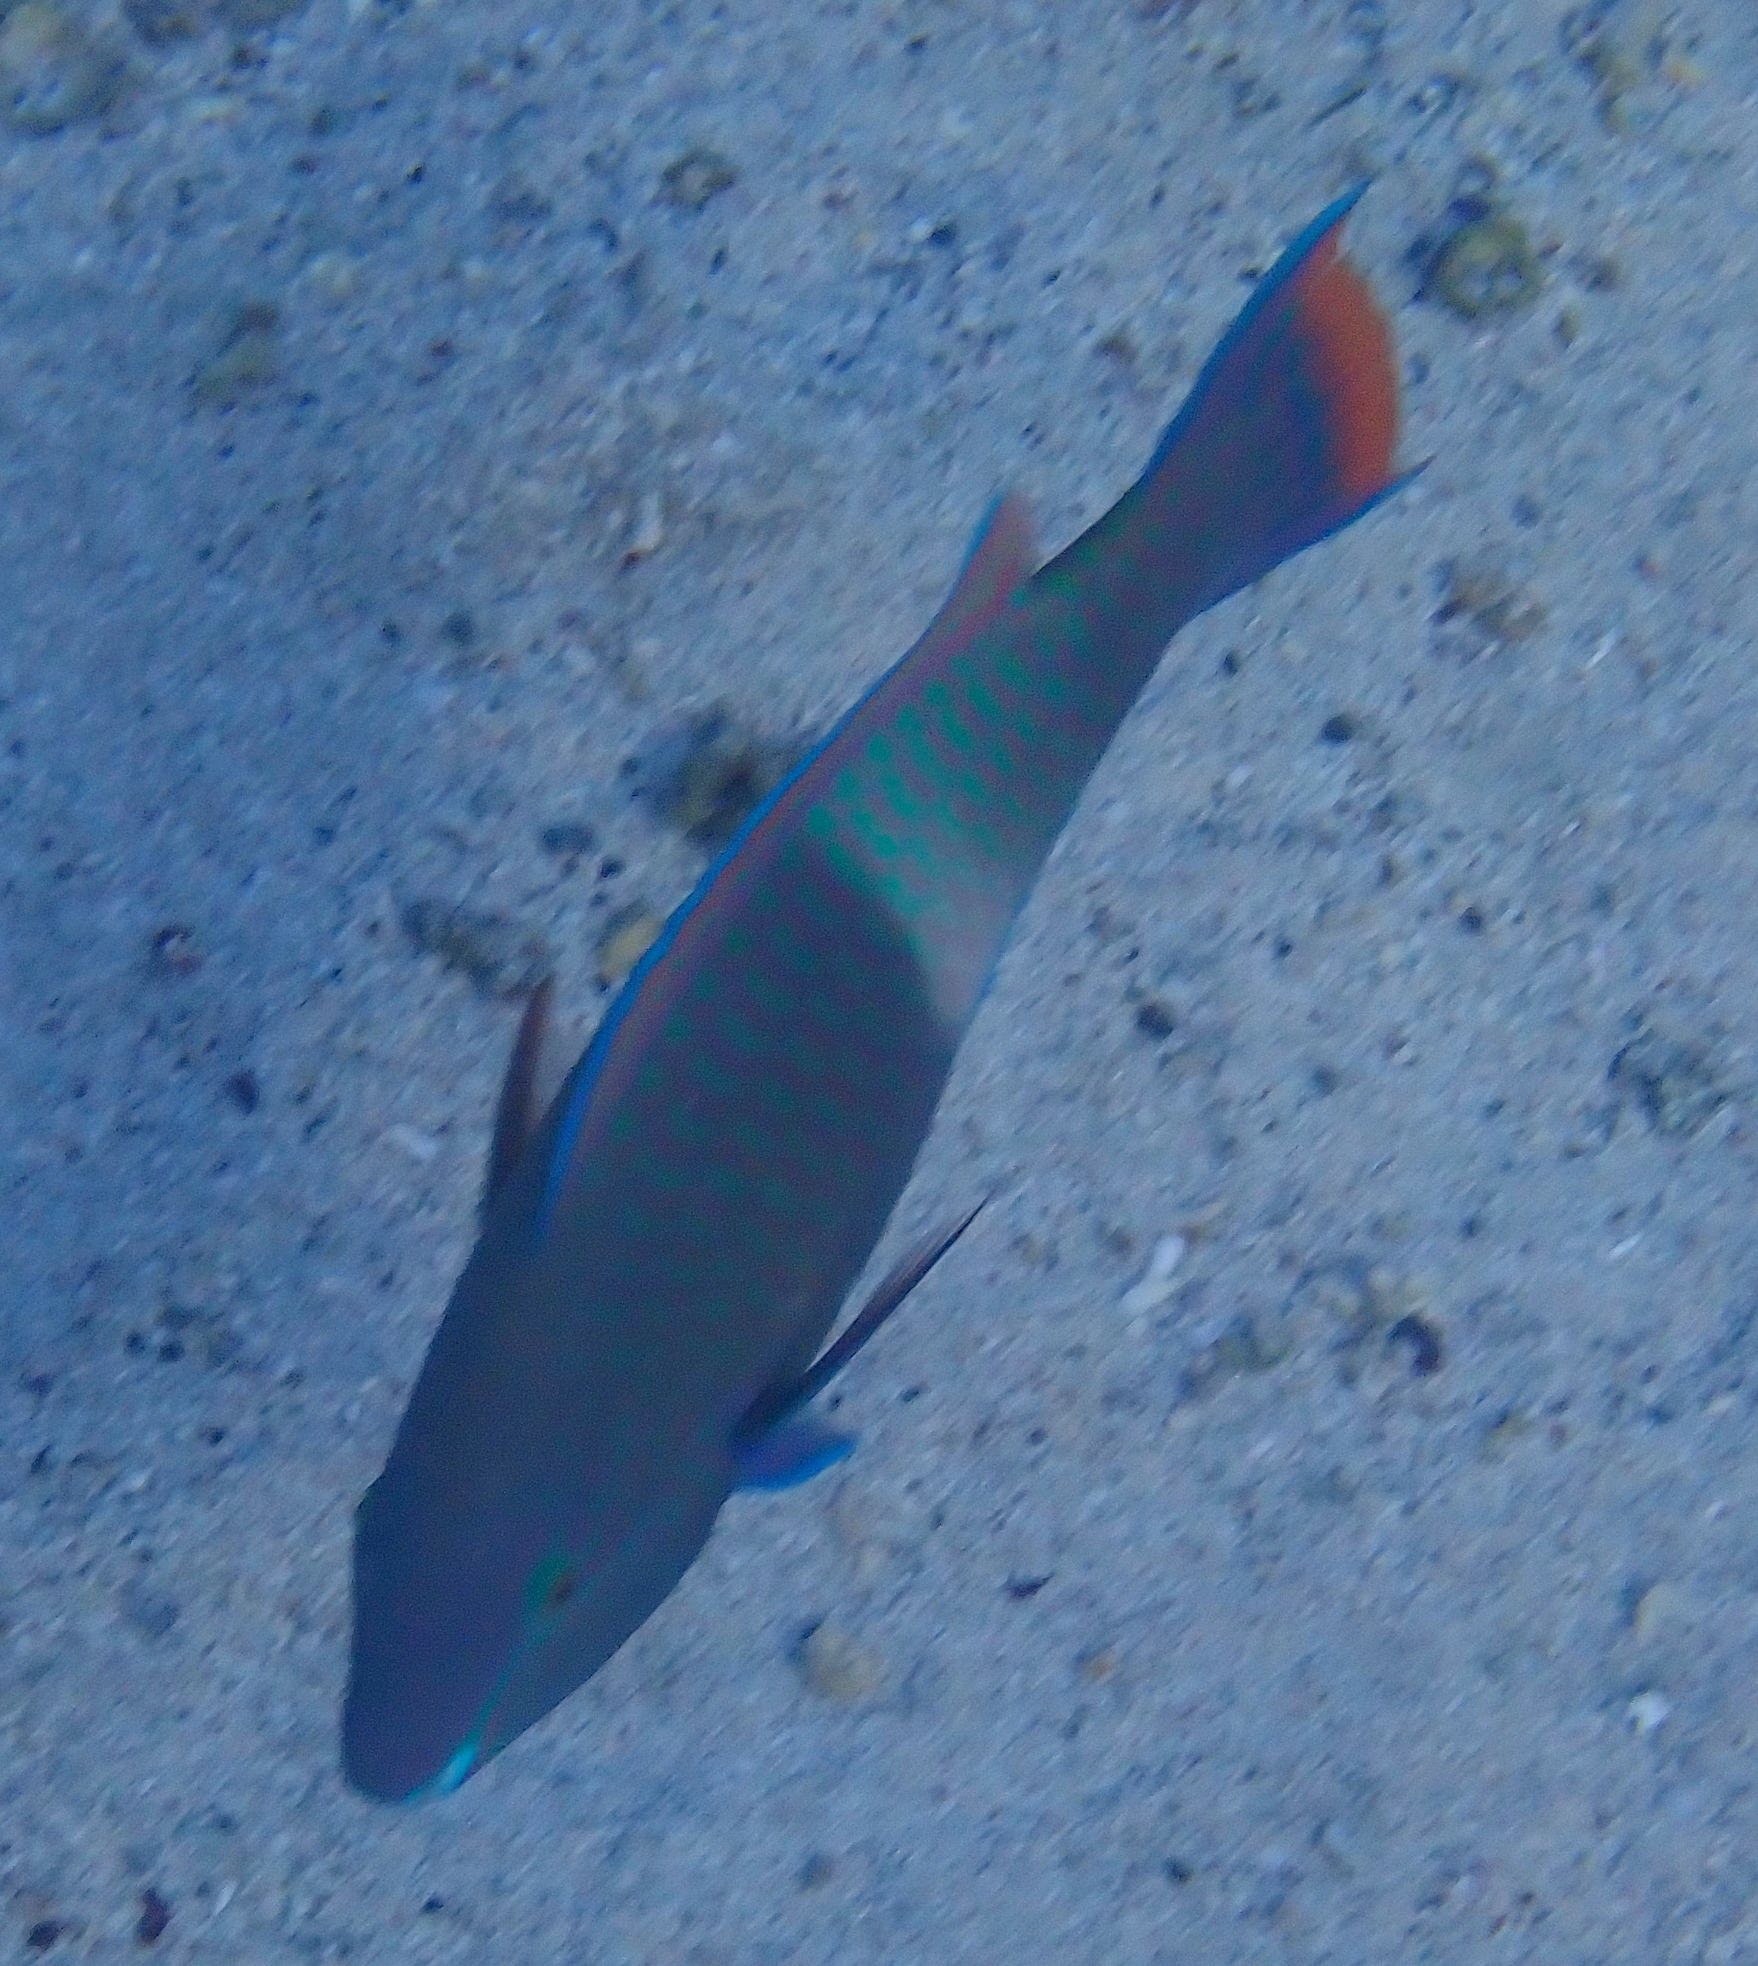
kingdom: Animalia
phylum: Chordata
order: Perciformes
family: Scaridae
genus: Scarus
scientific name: Scarus fuscopurpureus
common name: Purple-brown parrotfish
